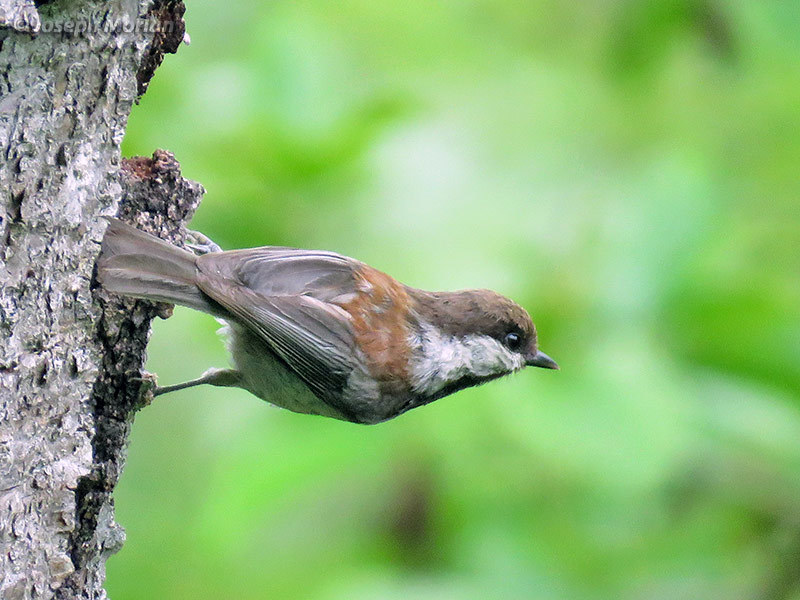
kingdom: Animalia
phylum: Chordata
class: Aves
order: Passeriformes
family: Paridae
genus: Poecile
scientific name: Poecile rufescens
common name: Chestnut-backed chickadee
